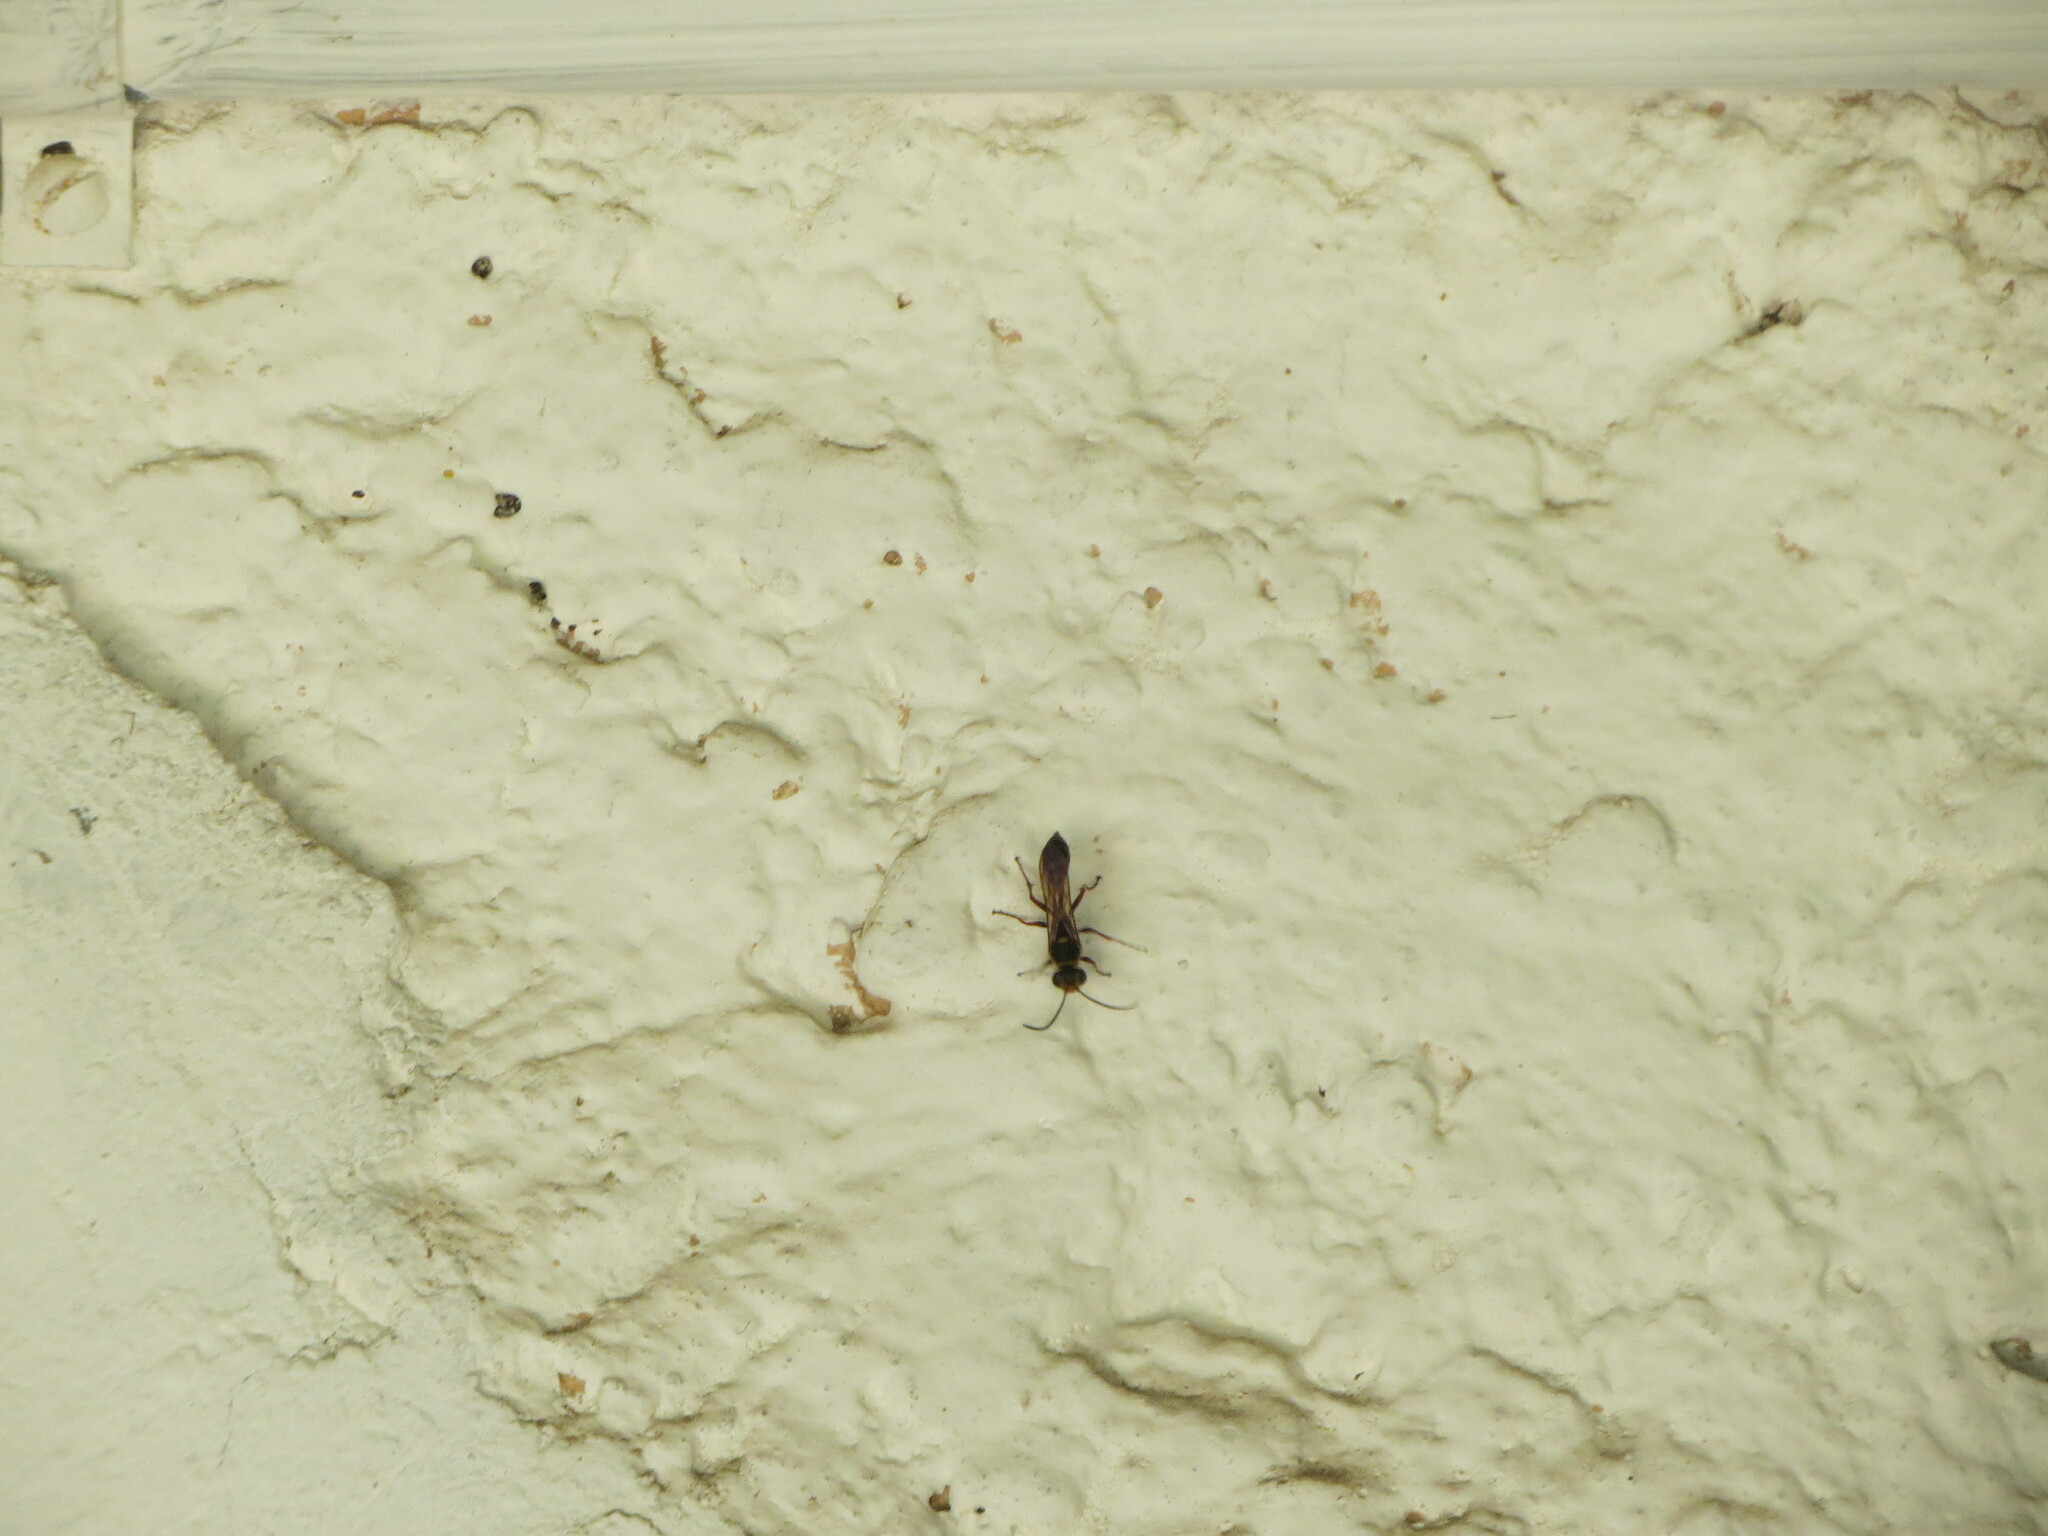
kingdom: Animalia
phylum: Arthropoda
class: Insecta
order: Hymenoptera
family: Sphecidae
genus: Sceliphron
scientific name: Sceliphron curvatum
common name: Pèlopèe
